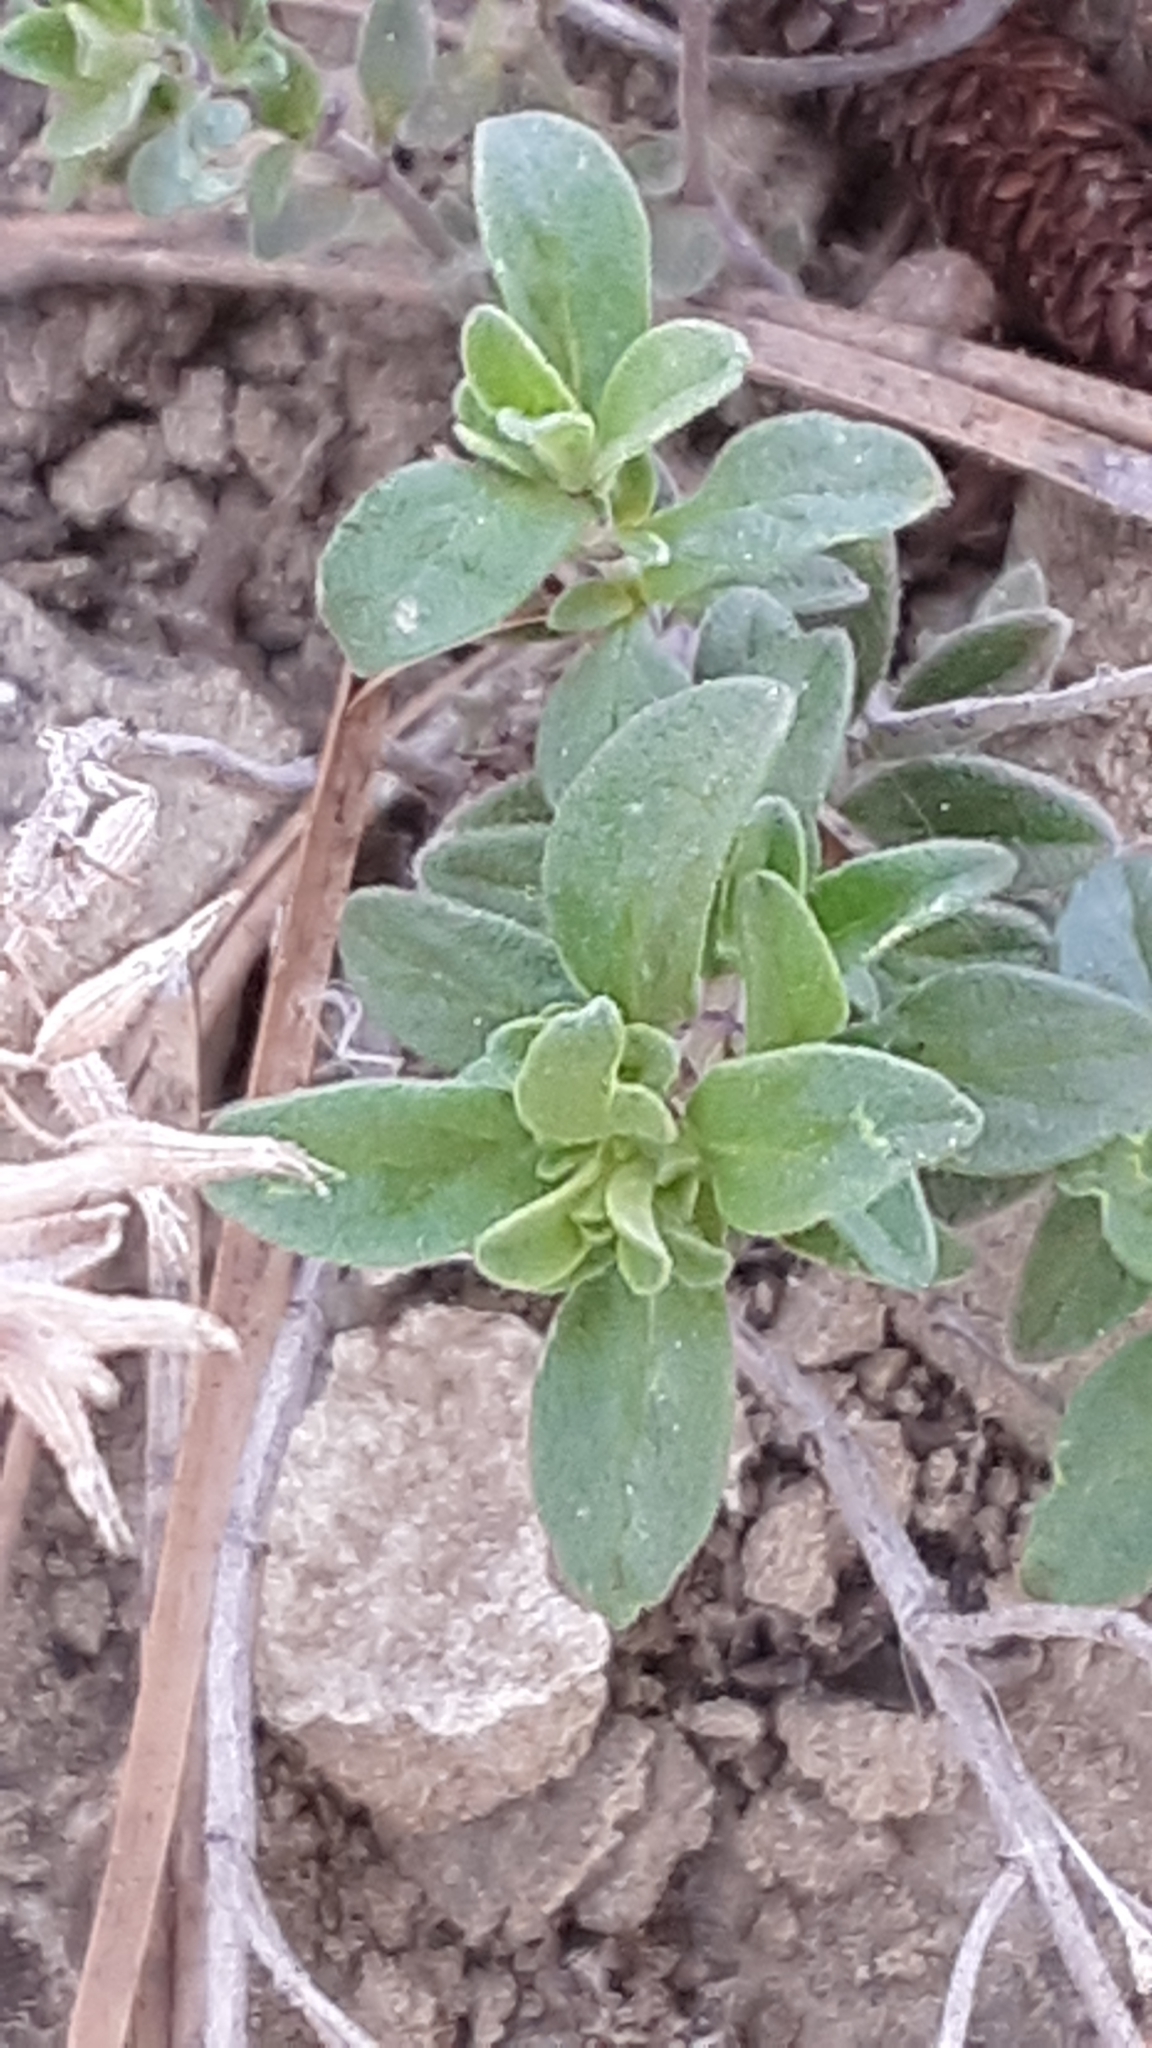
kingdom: Plantae
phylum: Tracheophyta
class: Magnoliopsida
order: Lamiales
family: Lamiaceae
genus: Hedeoma
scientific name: Hedeoma drummondii
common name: New mexico pennyroyal
